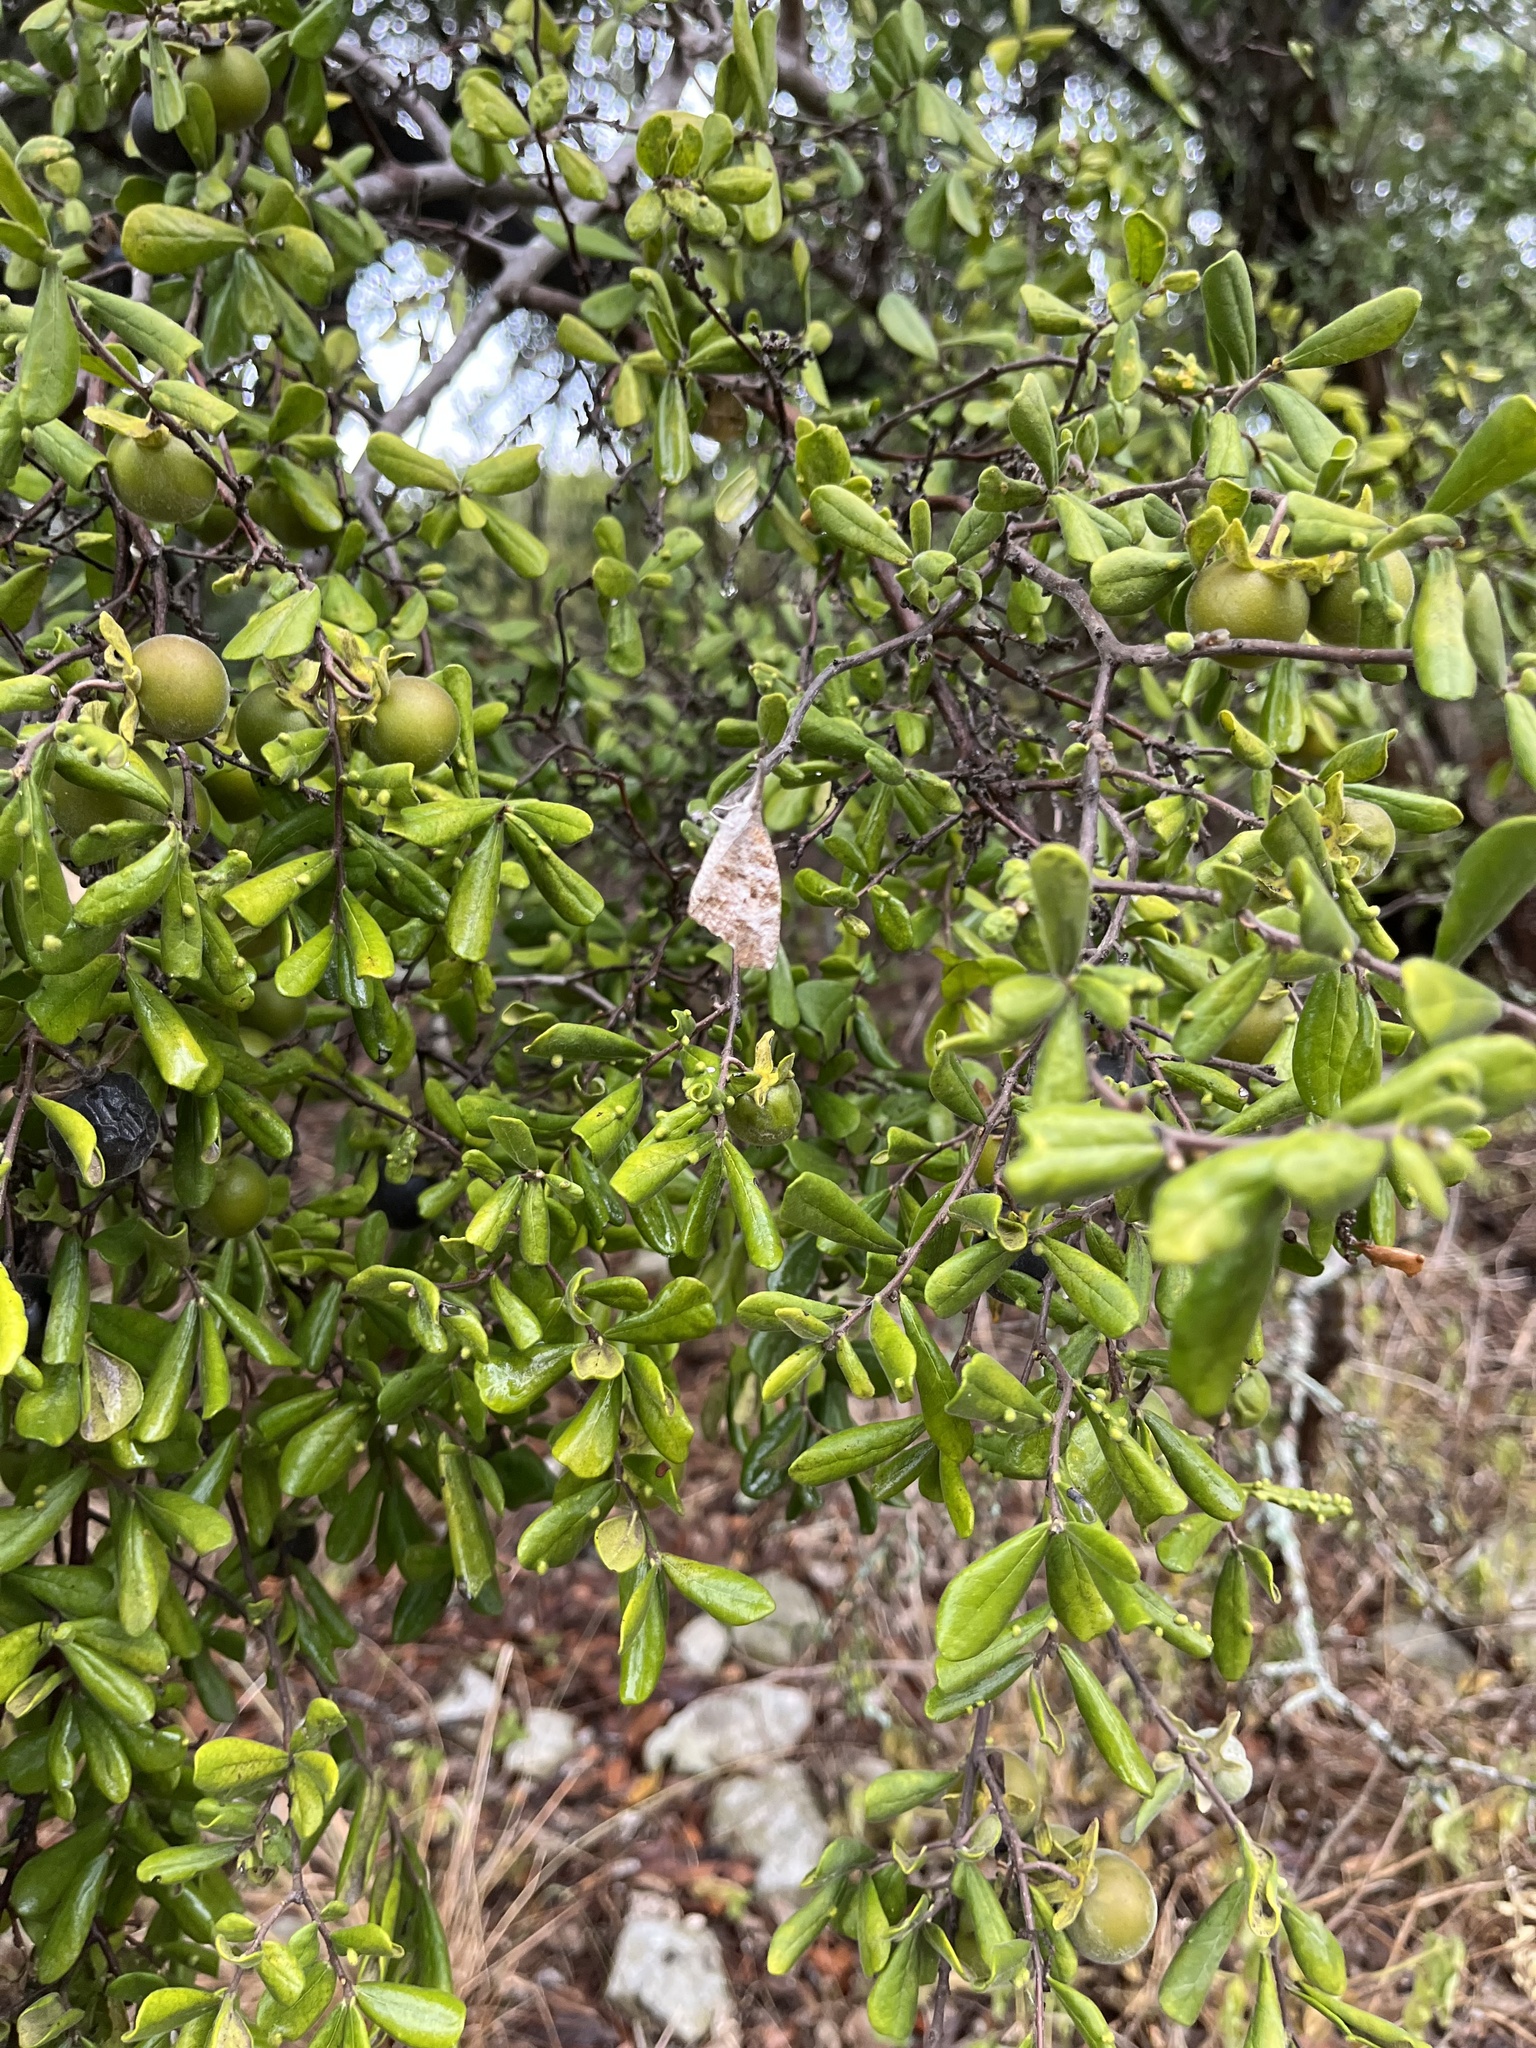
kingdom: Animalia
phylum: Arthropoda
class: Insecta
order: Lepidoptera
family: Nymphalidae
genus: Libytheana
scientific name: Libytheana carinenta
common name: American snout
